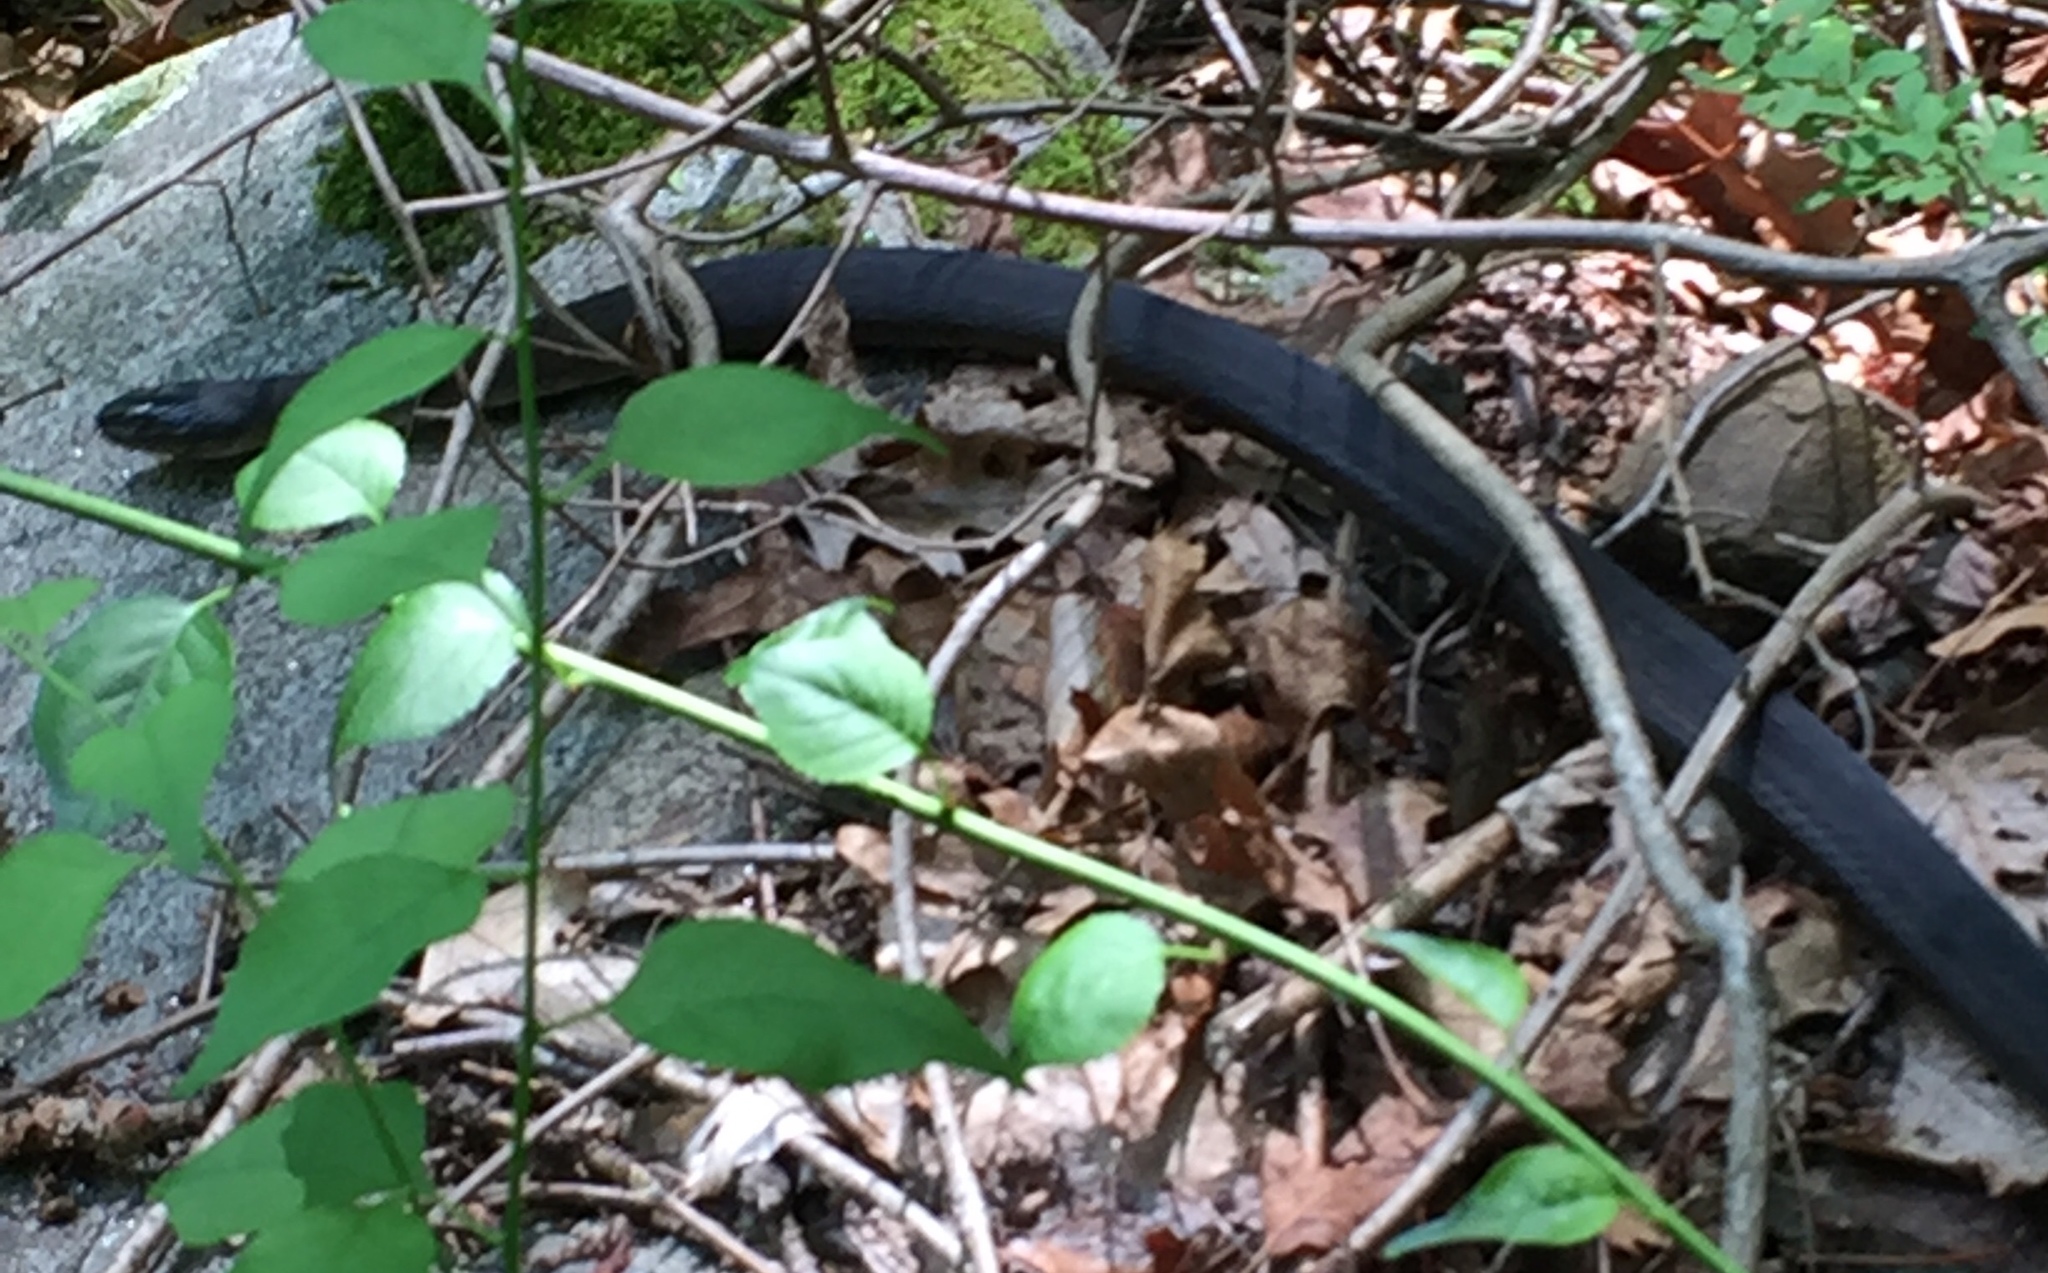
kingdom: Animalia
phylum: Chordata
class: Squamata
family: Colubridae
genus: Nerodia
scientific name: Nerodia sipedon
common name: Northern water snake
